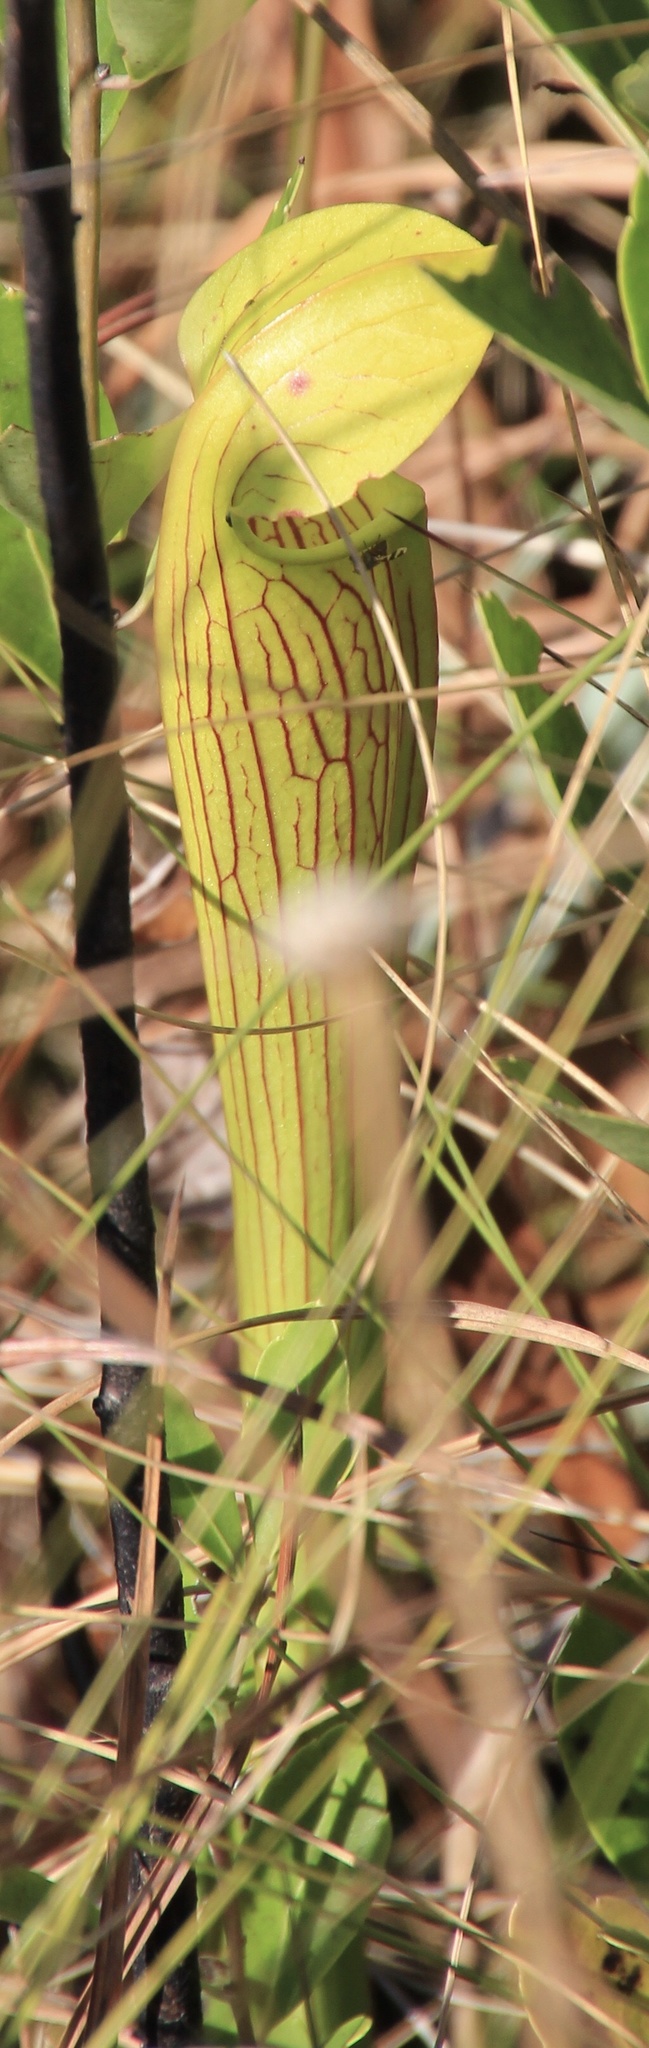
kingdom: Plantae
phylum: Tracheophyta
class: Magnoliopsida
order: Ericales
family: Sarraceniaceae
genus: Sarracenia
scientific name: Sarracenia alata
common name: Yellow trumpets
